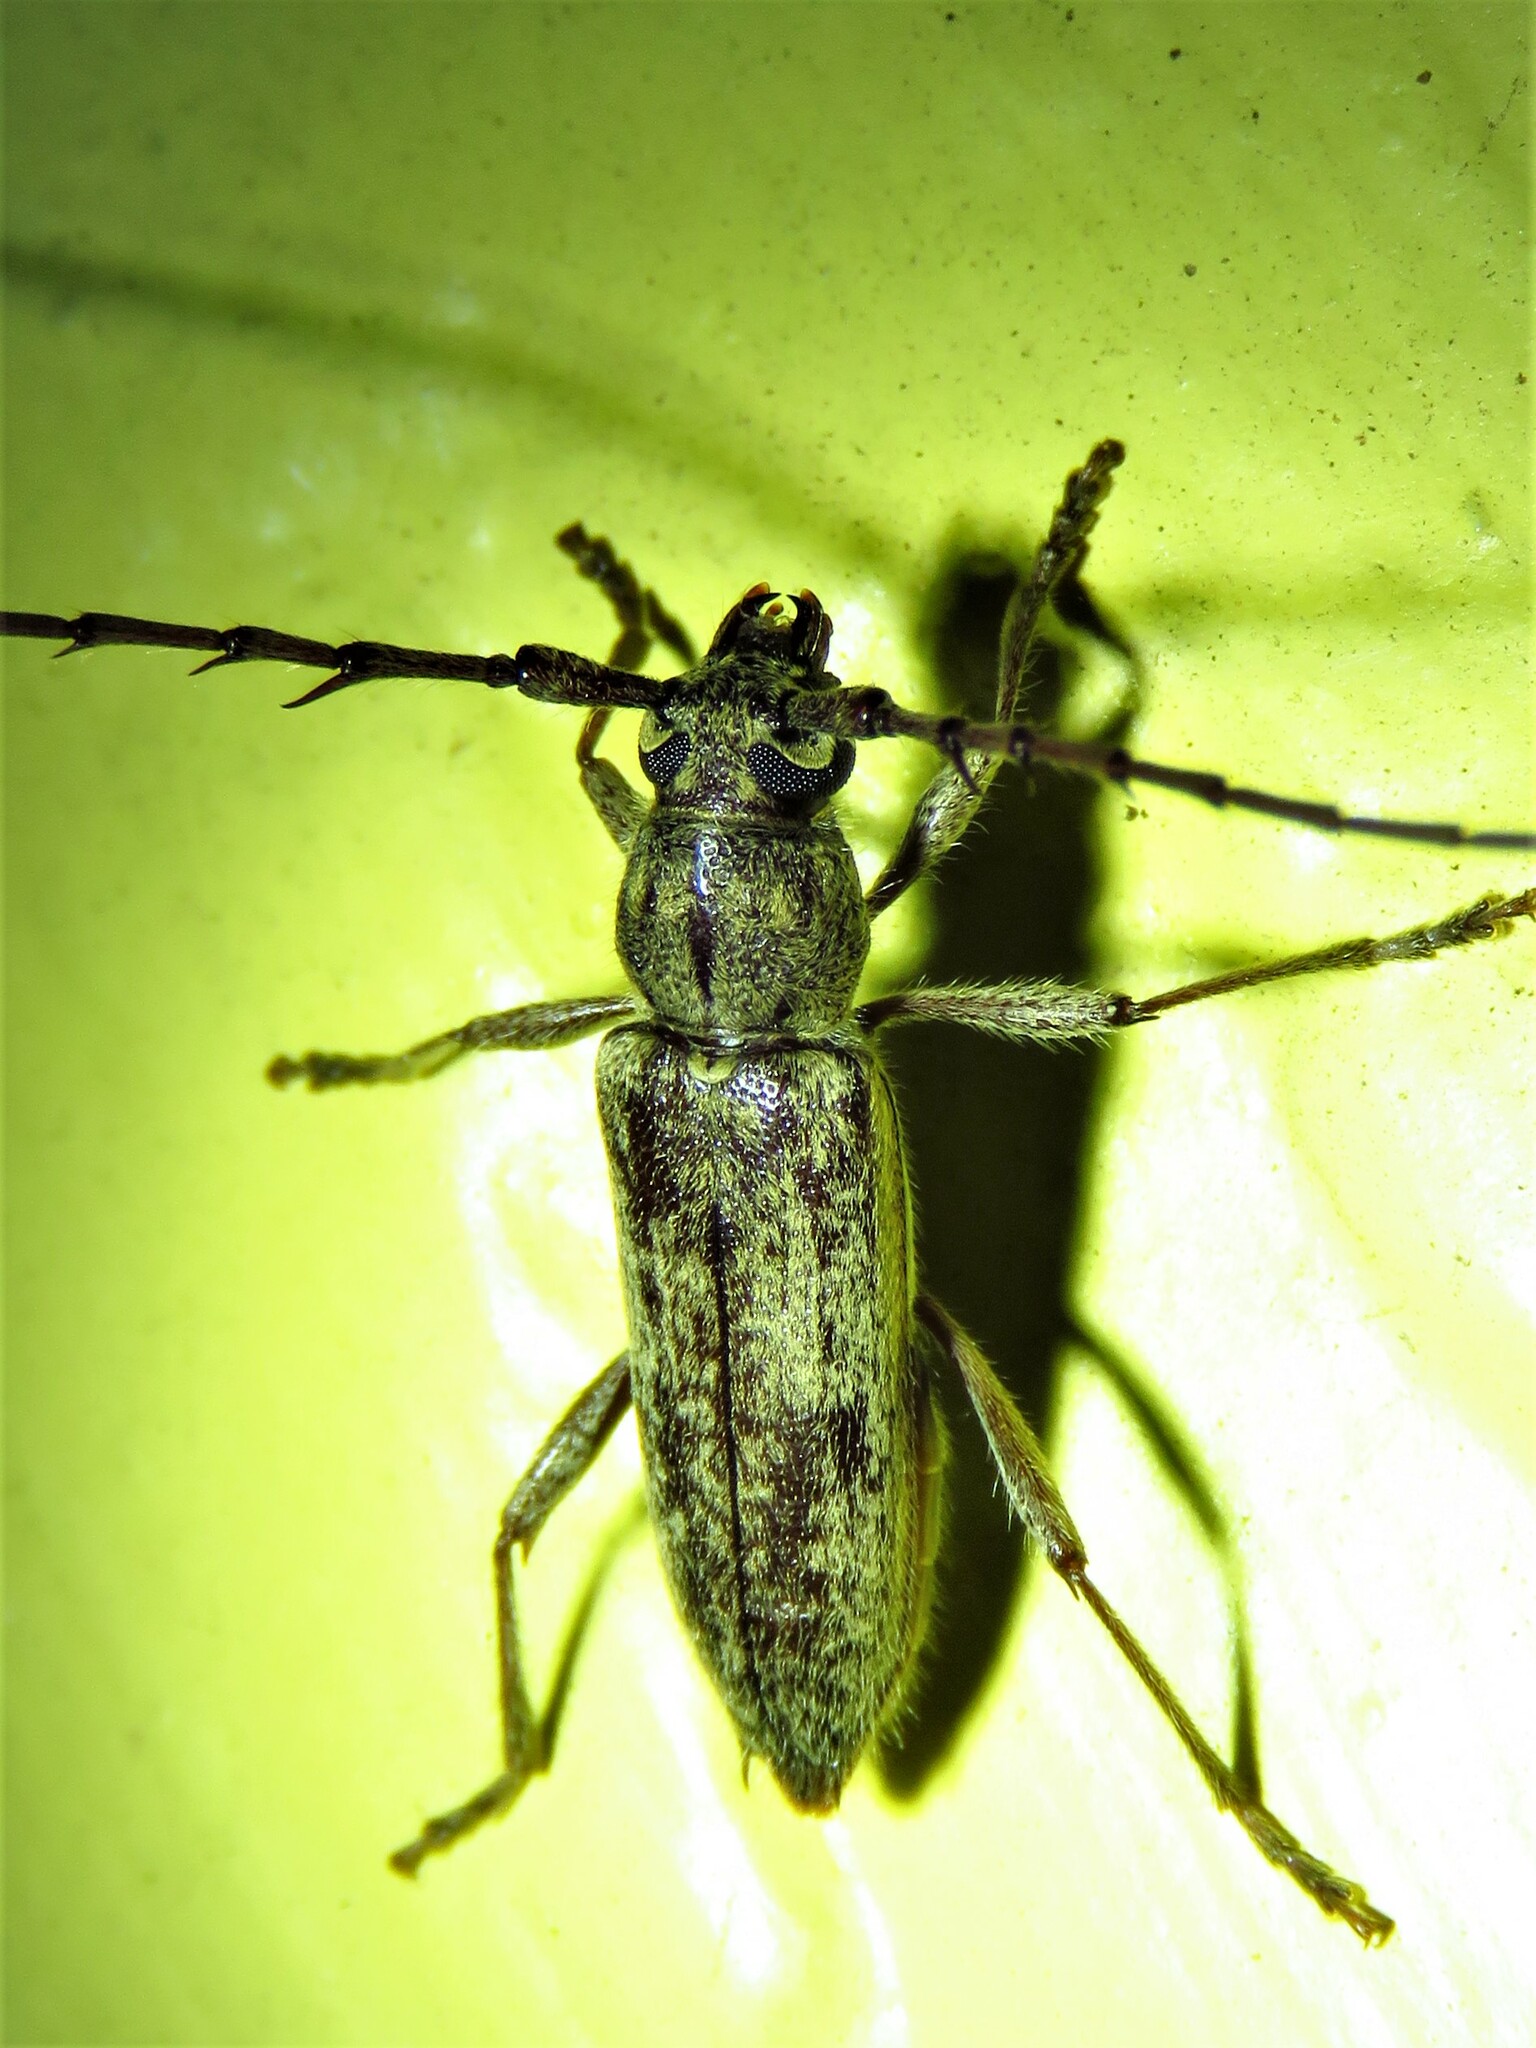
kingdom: Animalia
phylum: Arthropoda
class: Insecta
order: Coleoptera
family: Cerambycidae
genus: Elaphidion
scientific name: Elaphidion mucronatum
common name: Spined oak borer
